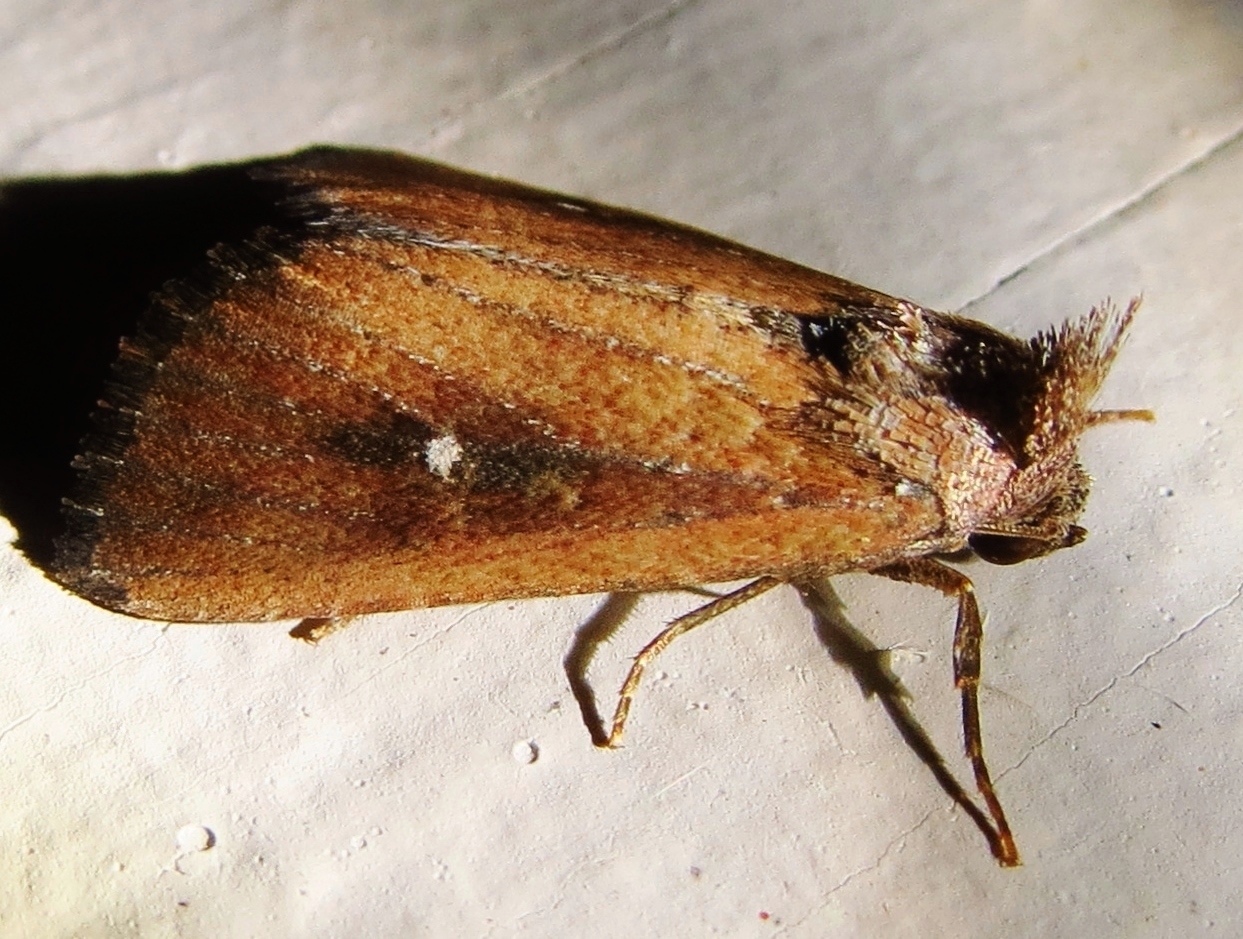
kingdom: Animalia
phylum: Arthropoda
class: Insecta
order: Lepidoptera
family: Noctuidae
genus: Condica
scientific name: Condica videns
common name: White-dotted groundling
